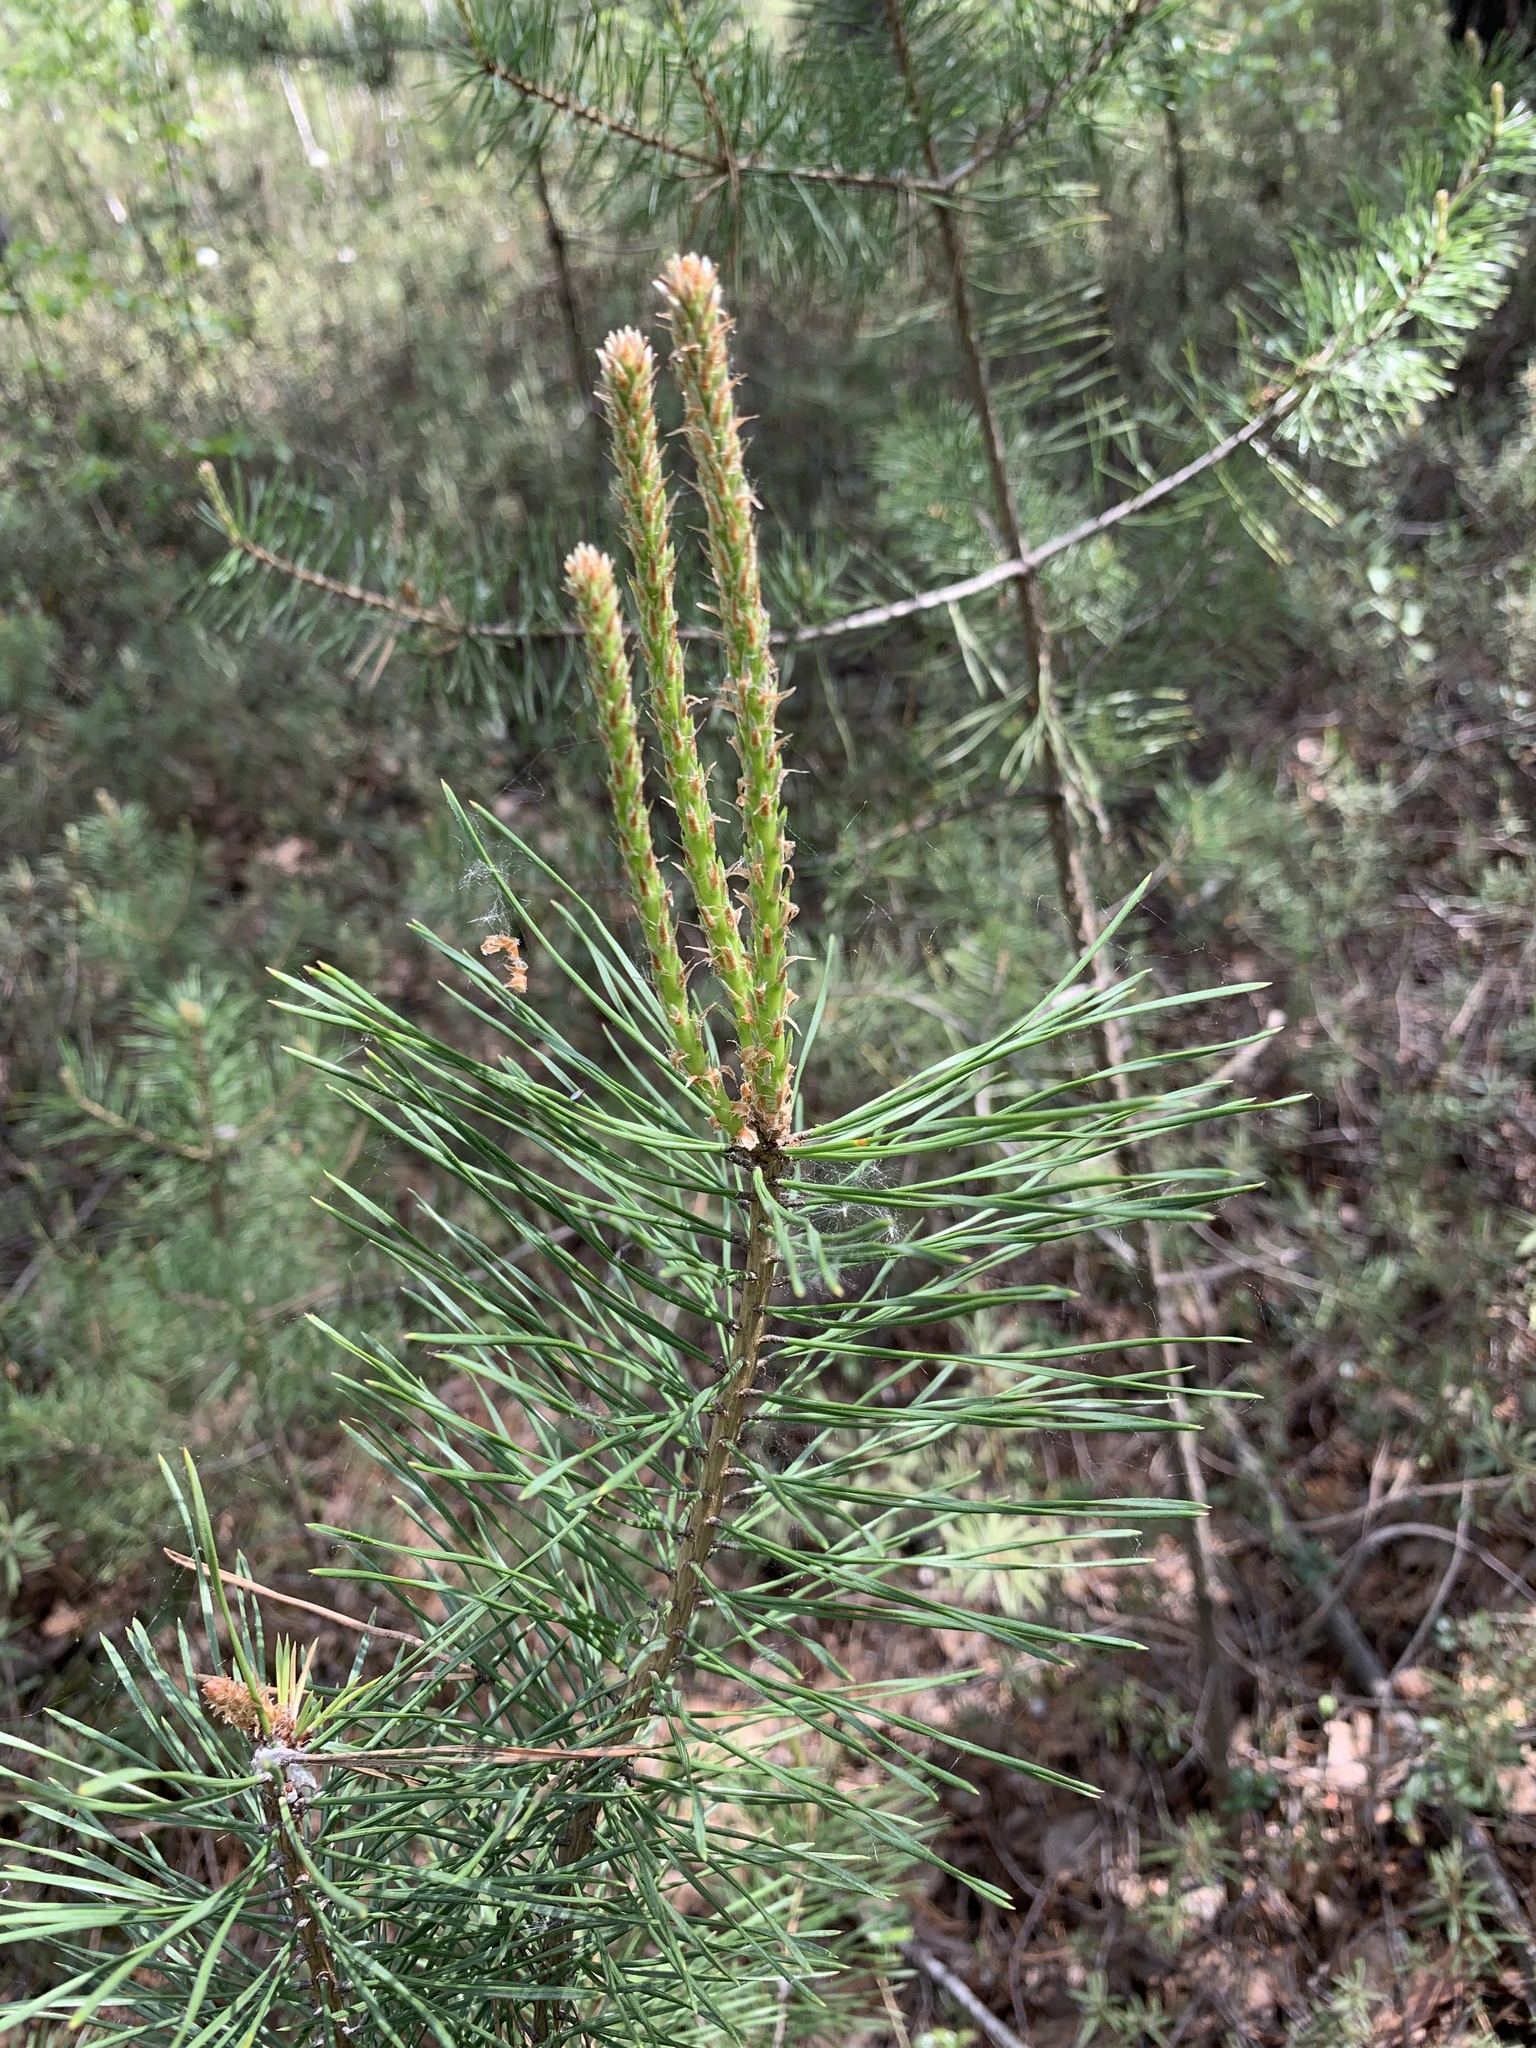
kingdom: Plantae
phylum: Tracheophyta
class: Pinopsida
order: Pinales
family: Pinaceae
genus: Pinus
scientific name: Pinus sylvestris
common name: Scots pine
